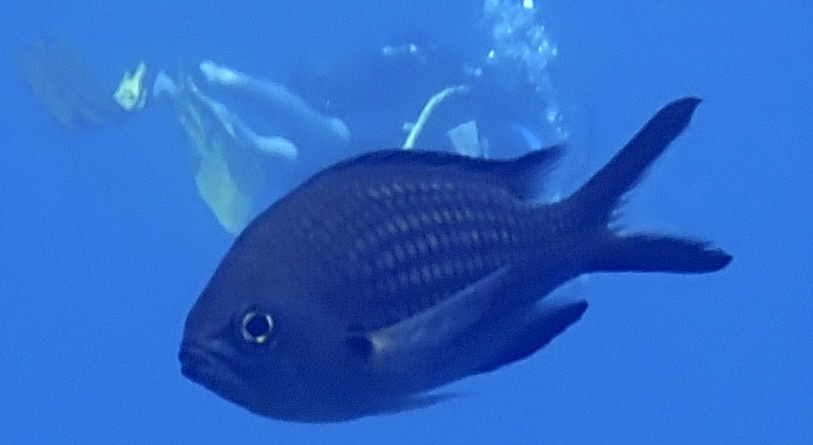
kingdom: Animalia
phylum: Chordata
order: Perciformes
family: Pomacentridae
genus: Chromis
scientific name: Chromis chromis
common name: Damselfish
